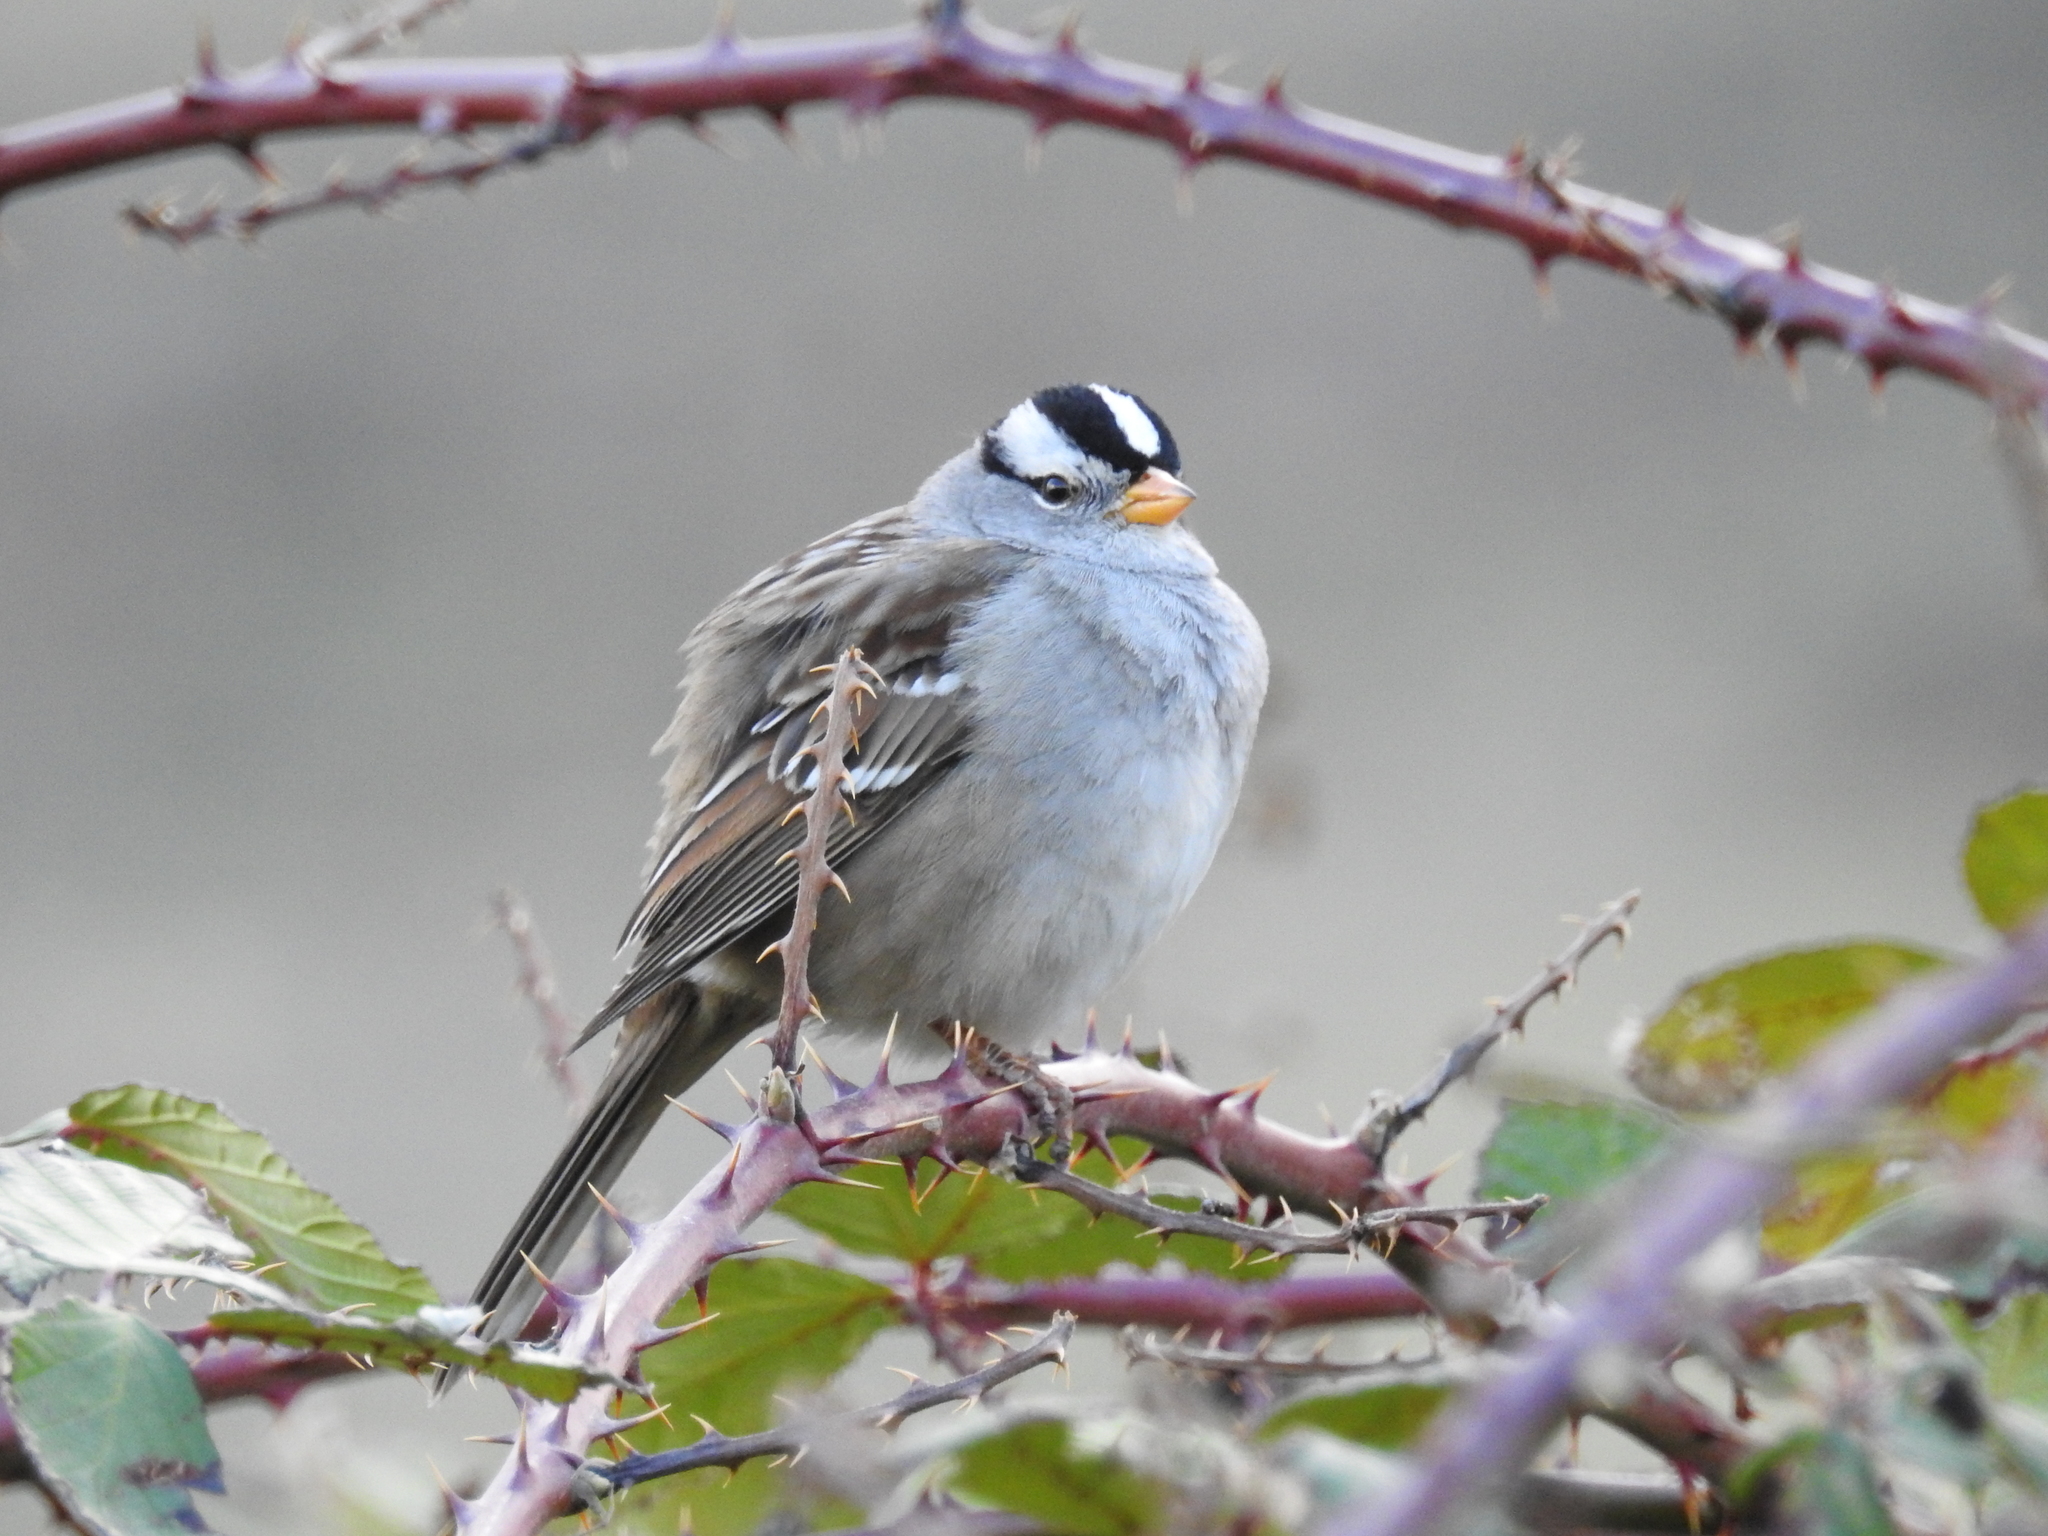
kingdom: Animalia
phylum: Chordata
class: Aves
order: Passeriformes
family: Passerellidae
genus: Zonotrichia
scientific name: Zonotrichia leucophrys
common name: White-crowned sparrow
